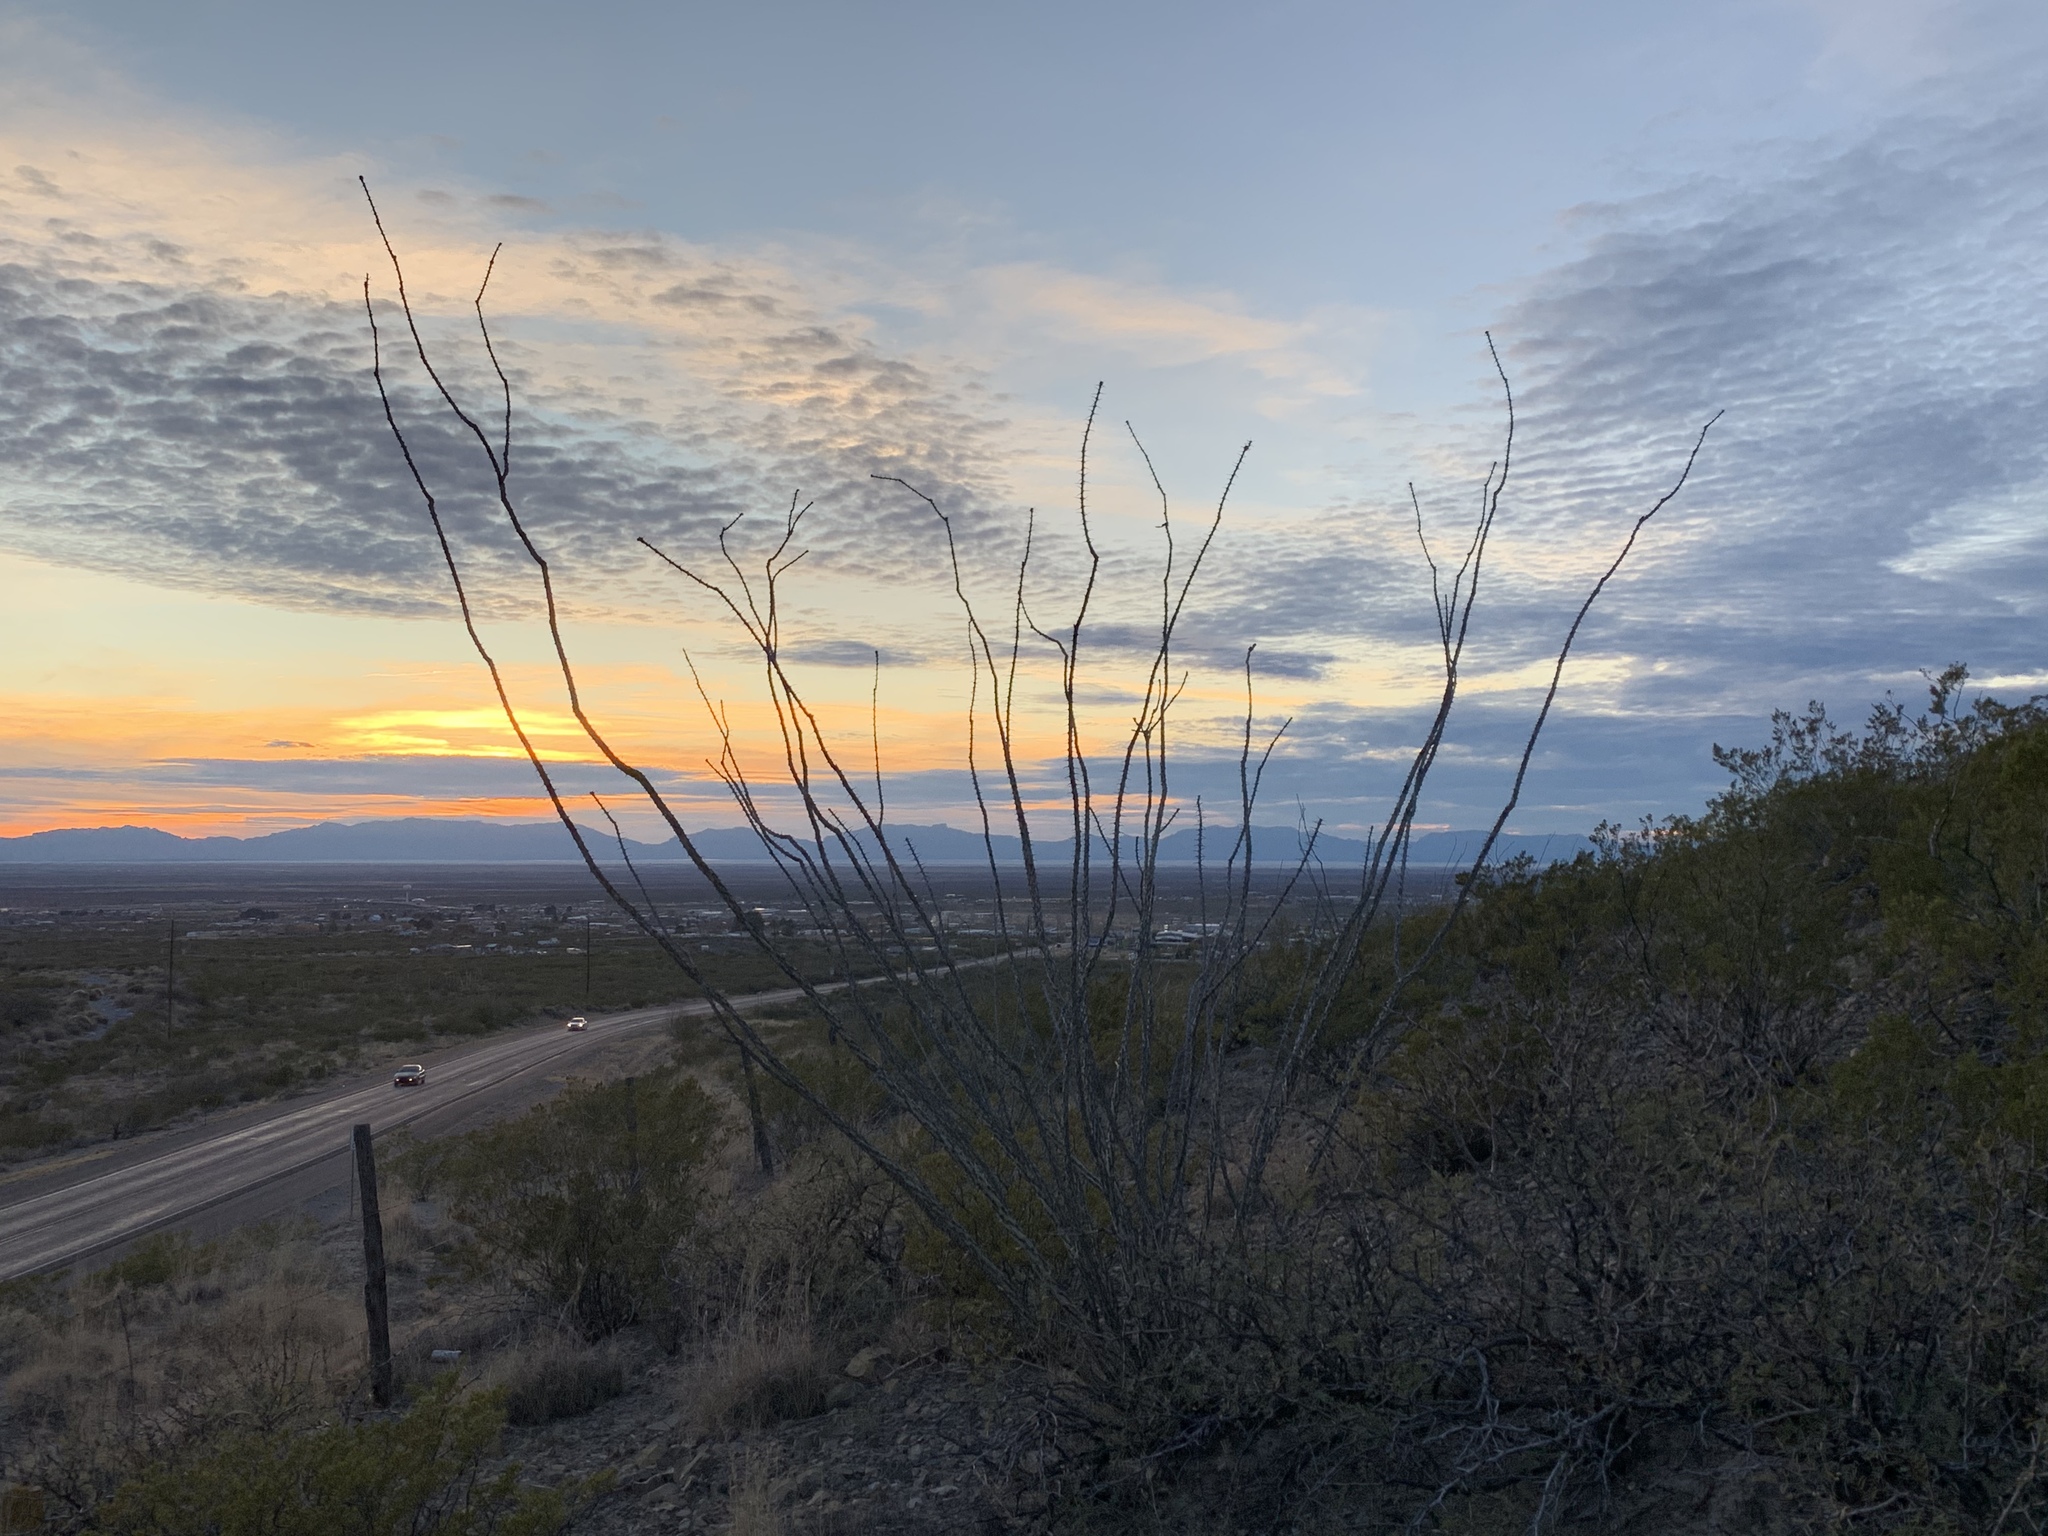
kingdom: Plantae
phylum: Tracheophyta
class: Magnoliopsida
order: Ericales
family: Fouquieriaceae
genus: Fouquieria
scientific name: Fouquieria splendens
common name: Vine-cactus
